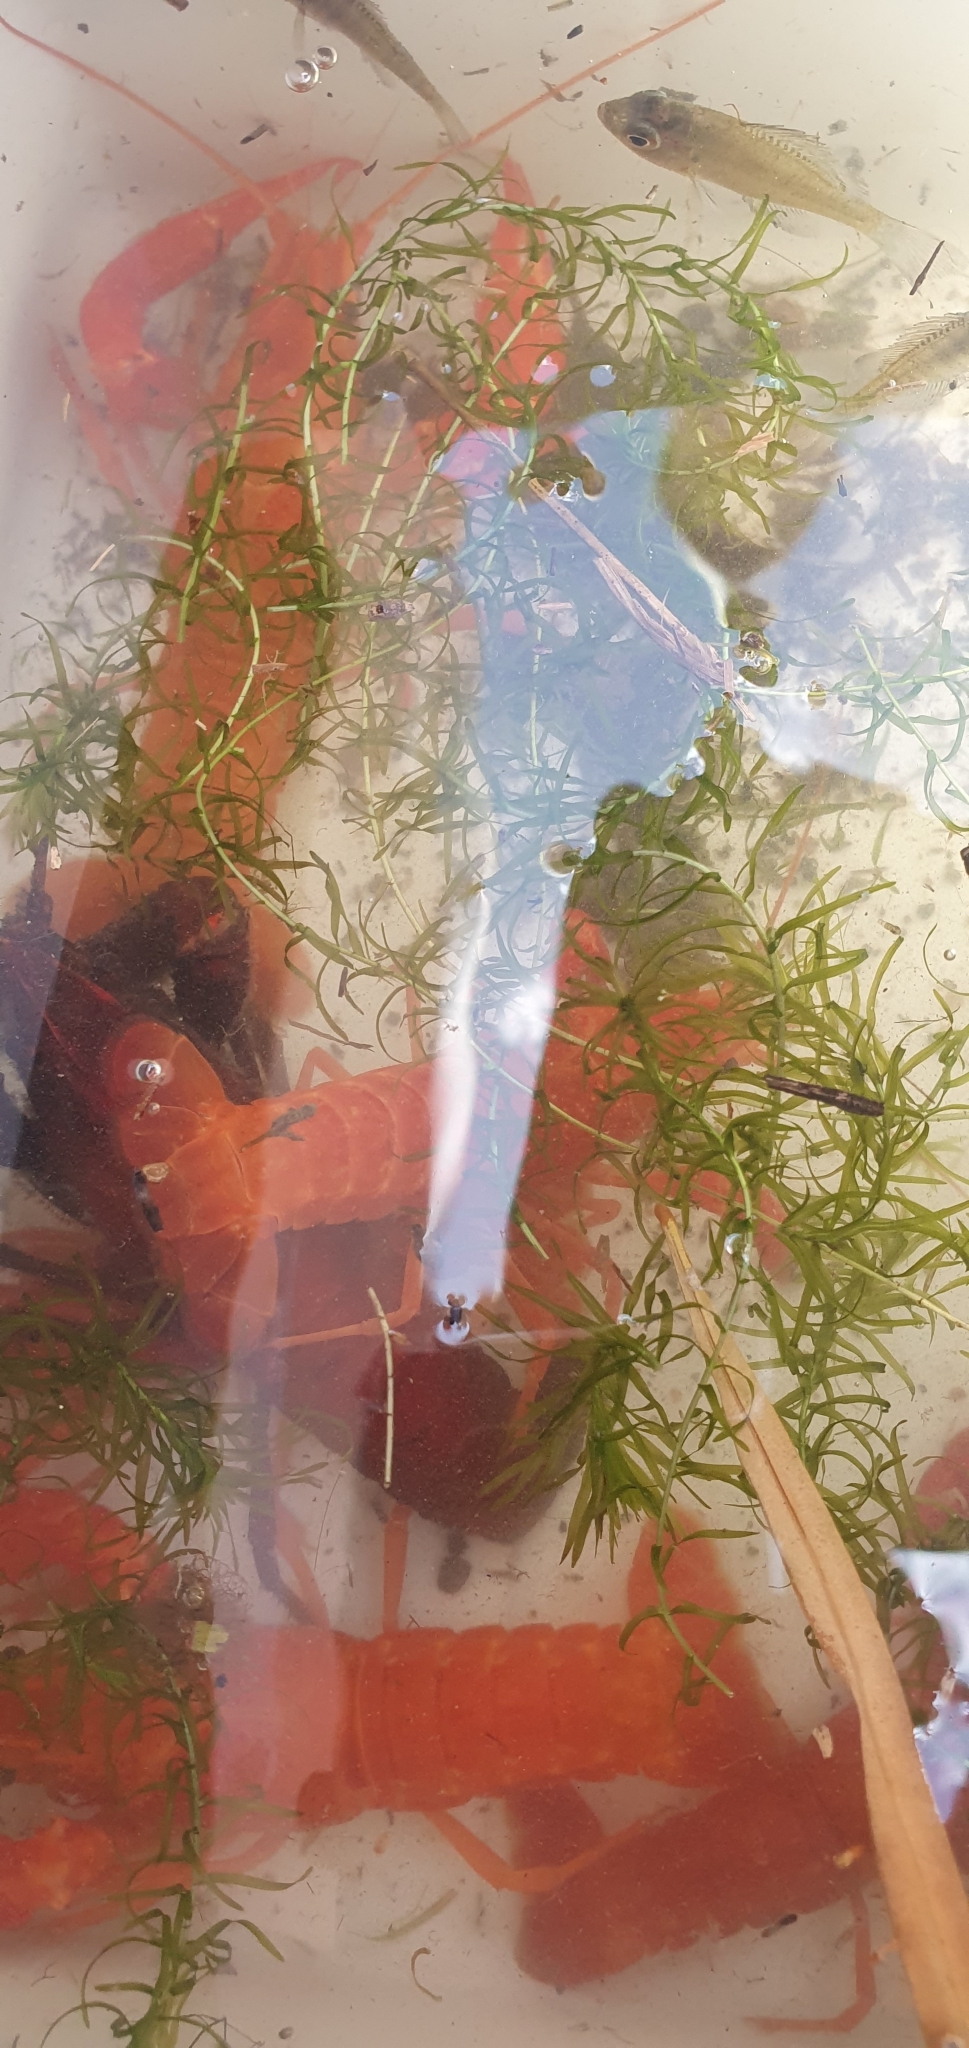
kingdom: Animalia
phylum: Arthropoda
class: Malacostraca
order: Decapoda
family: Cambaridae
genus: Procambarus
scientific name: Procambarus clarkii
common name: Red swamp crayfish
